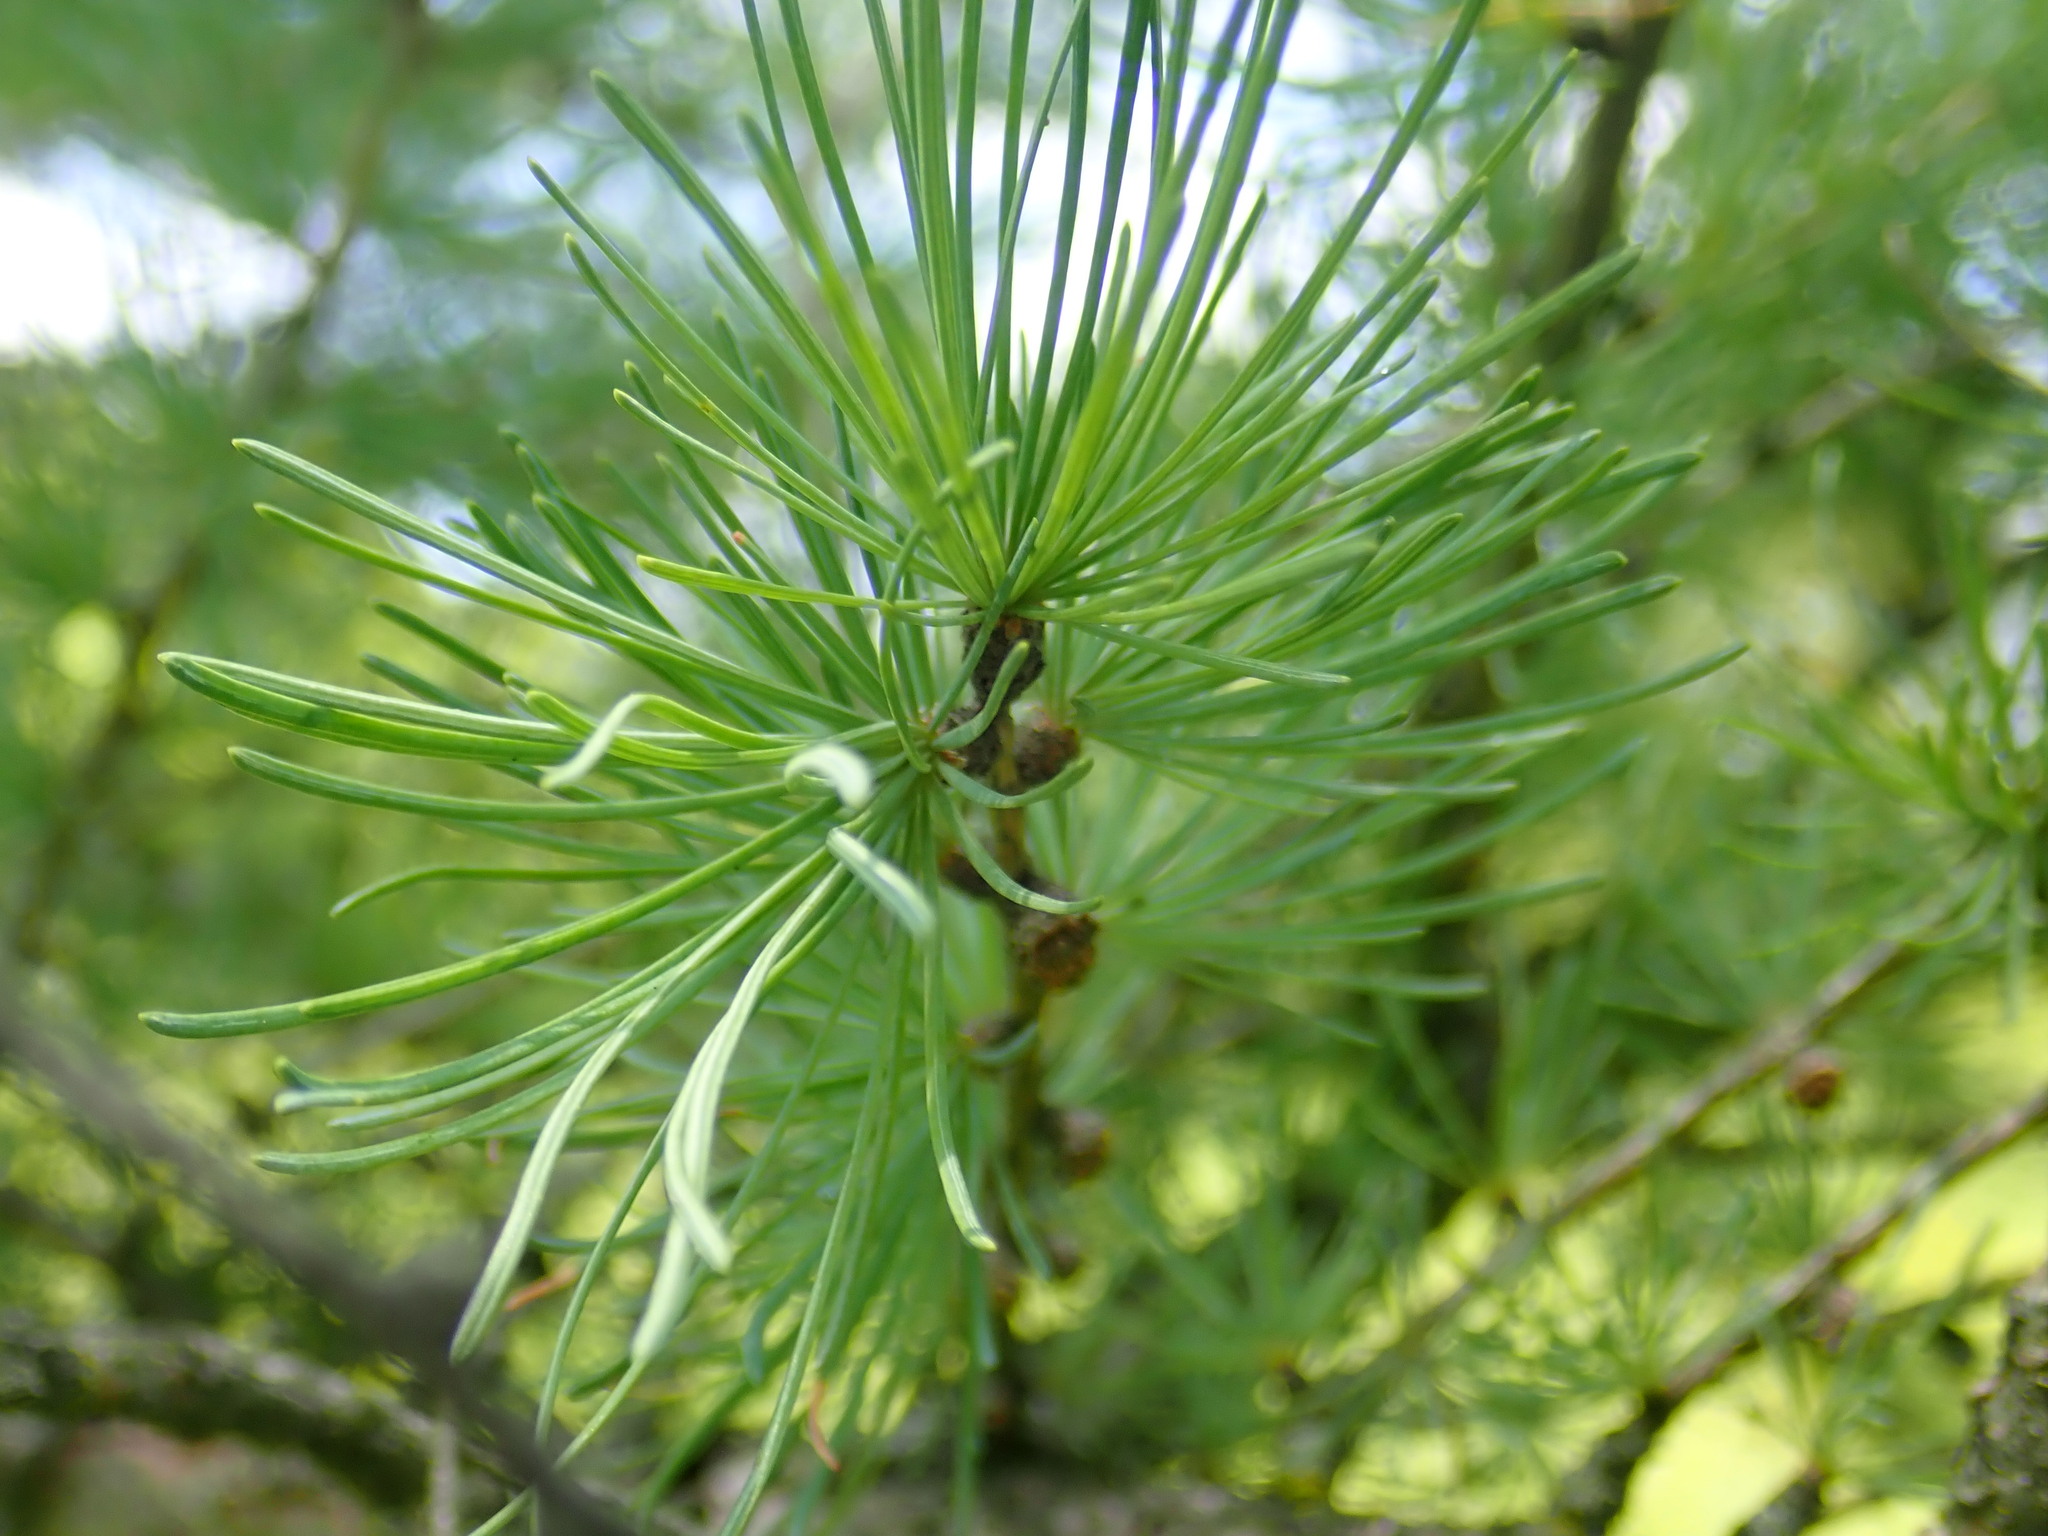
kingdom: Plantae
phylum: Tracheophyta
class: Pinopsida
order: Pinales
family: Pinaceae
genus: Larix
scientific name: Larix laricina
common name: American larch
